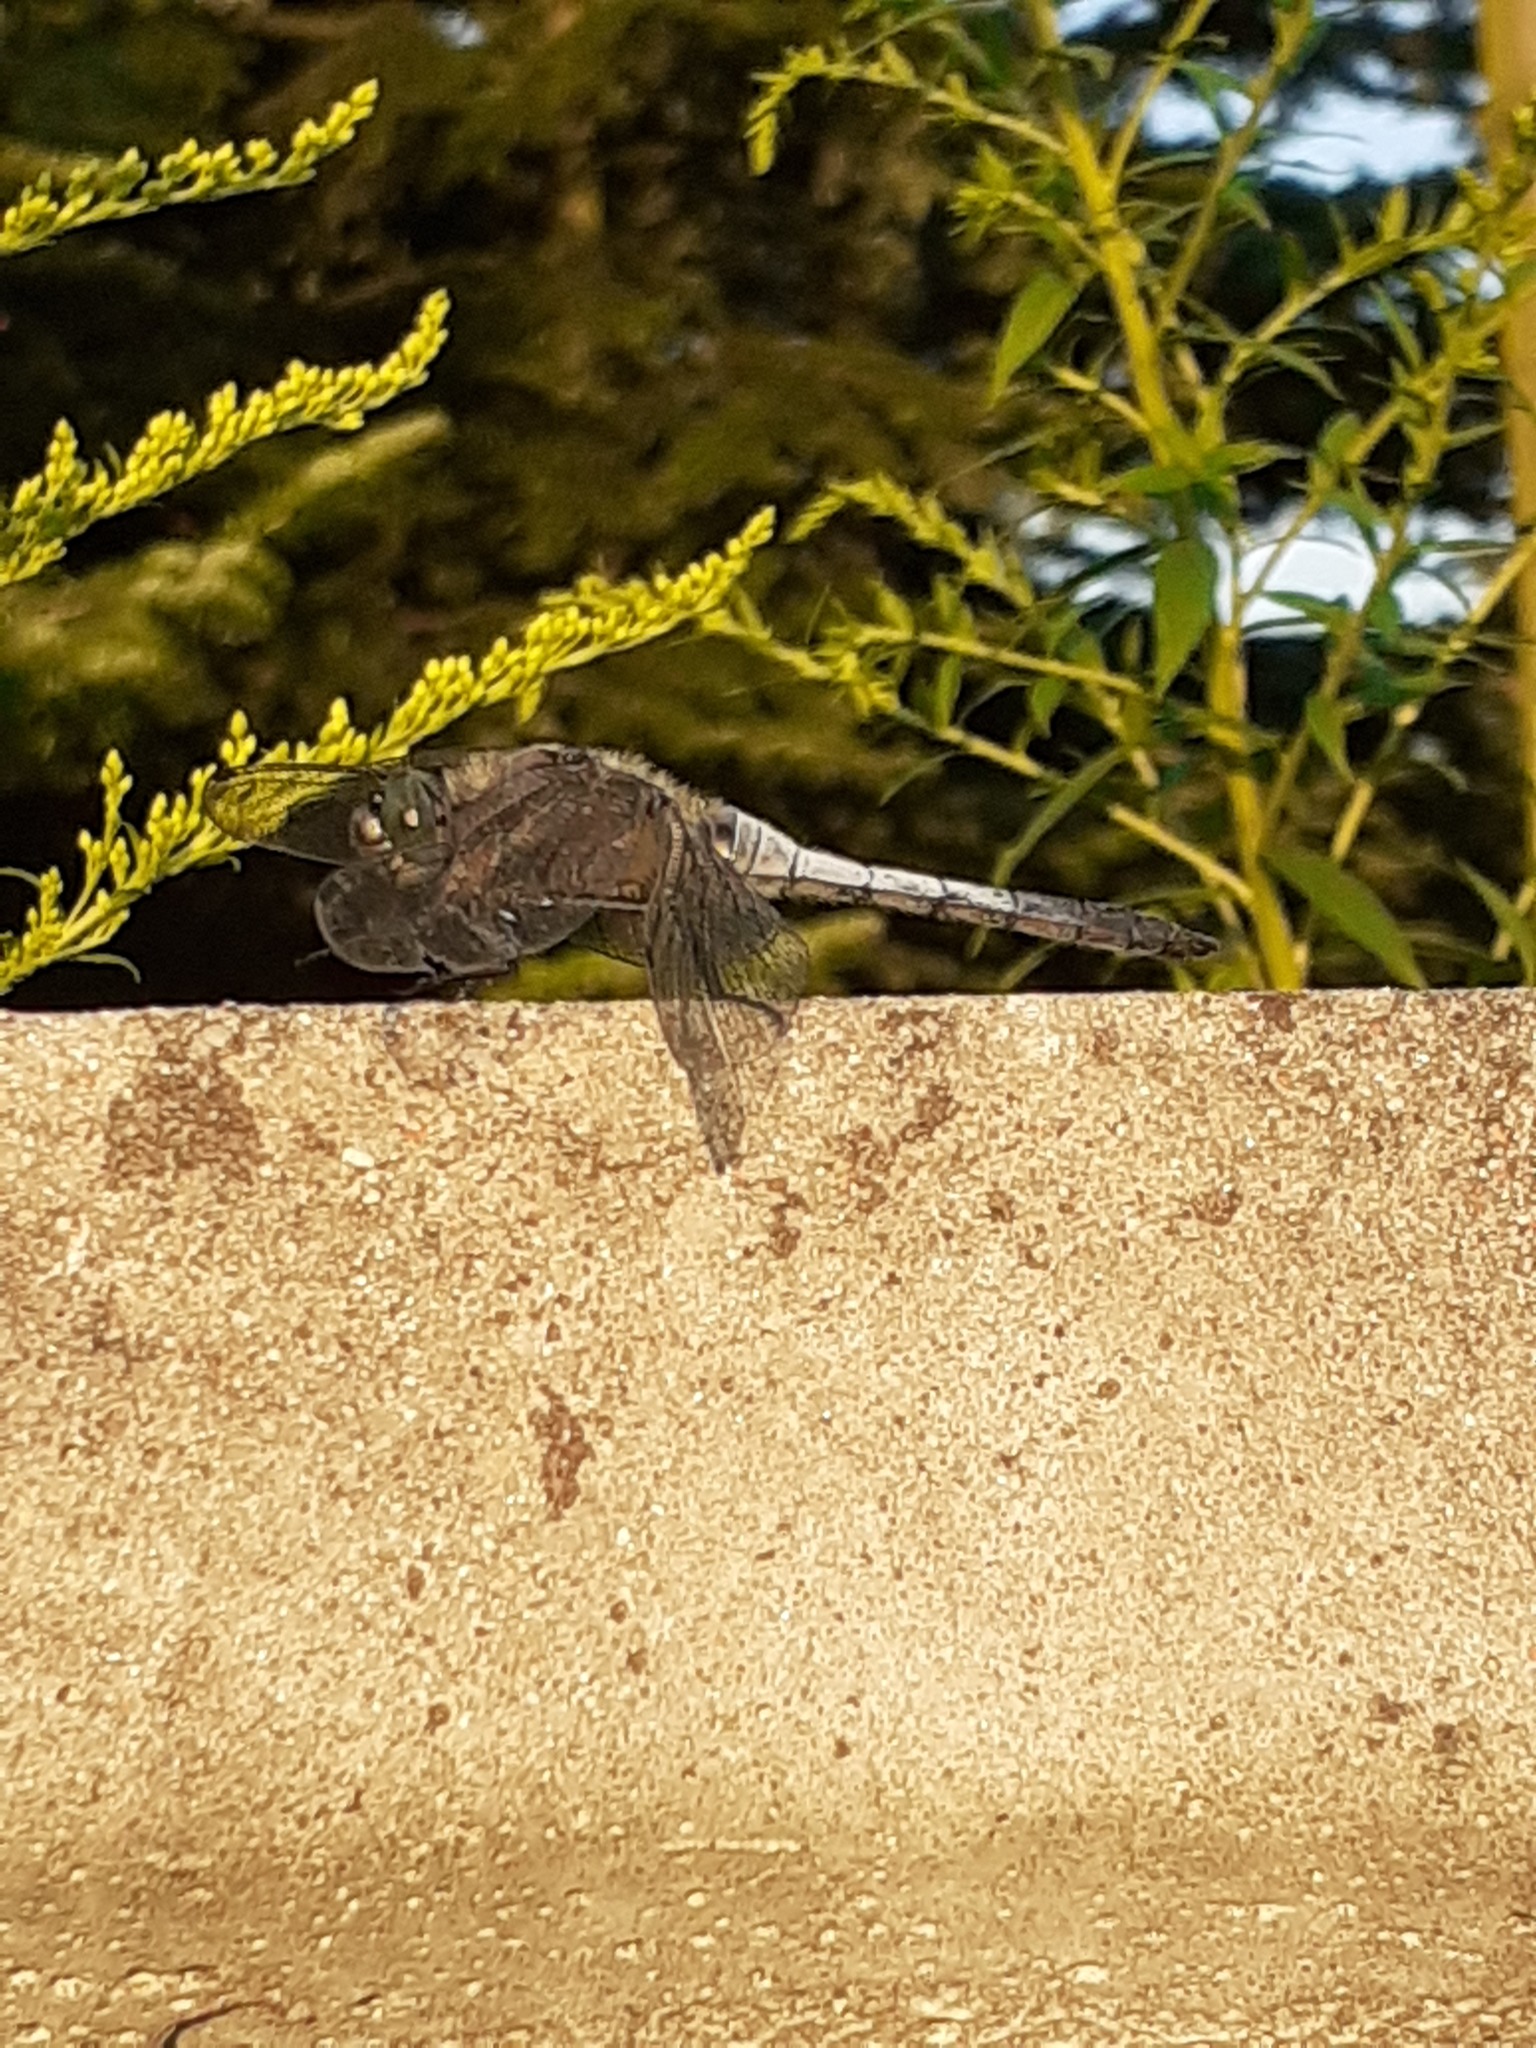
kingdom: Animalia
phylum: Arthropoda
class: Insecta
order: Odonata
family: Libellulidae
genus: Orthetrum
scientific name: Orthetrum cancellatum
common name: Black-tailed skimmer
